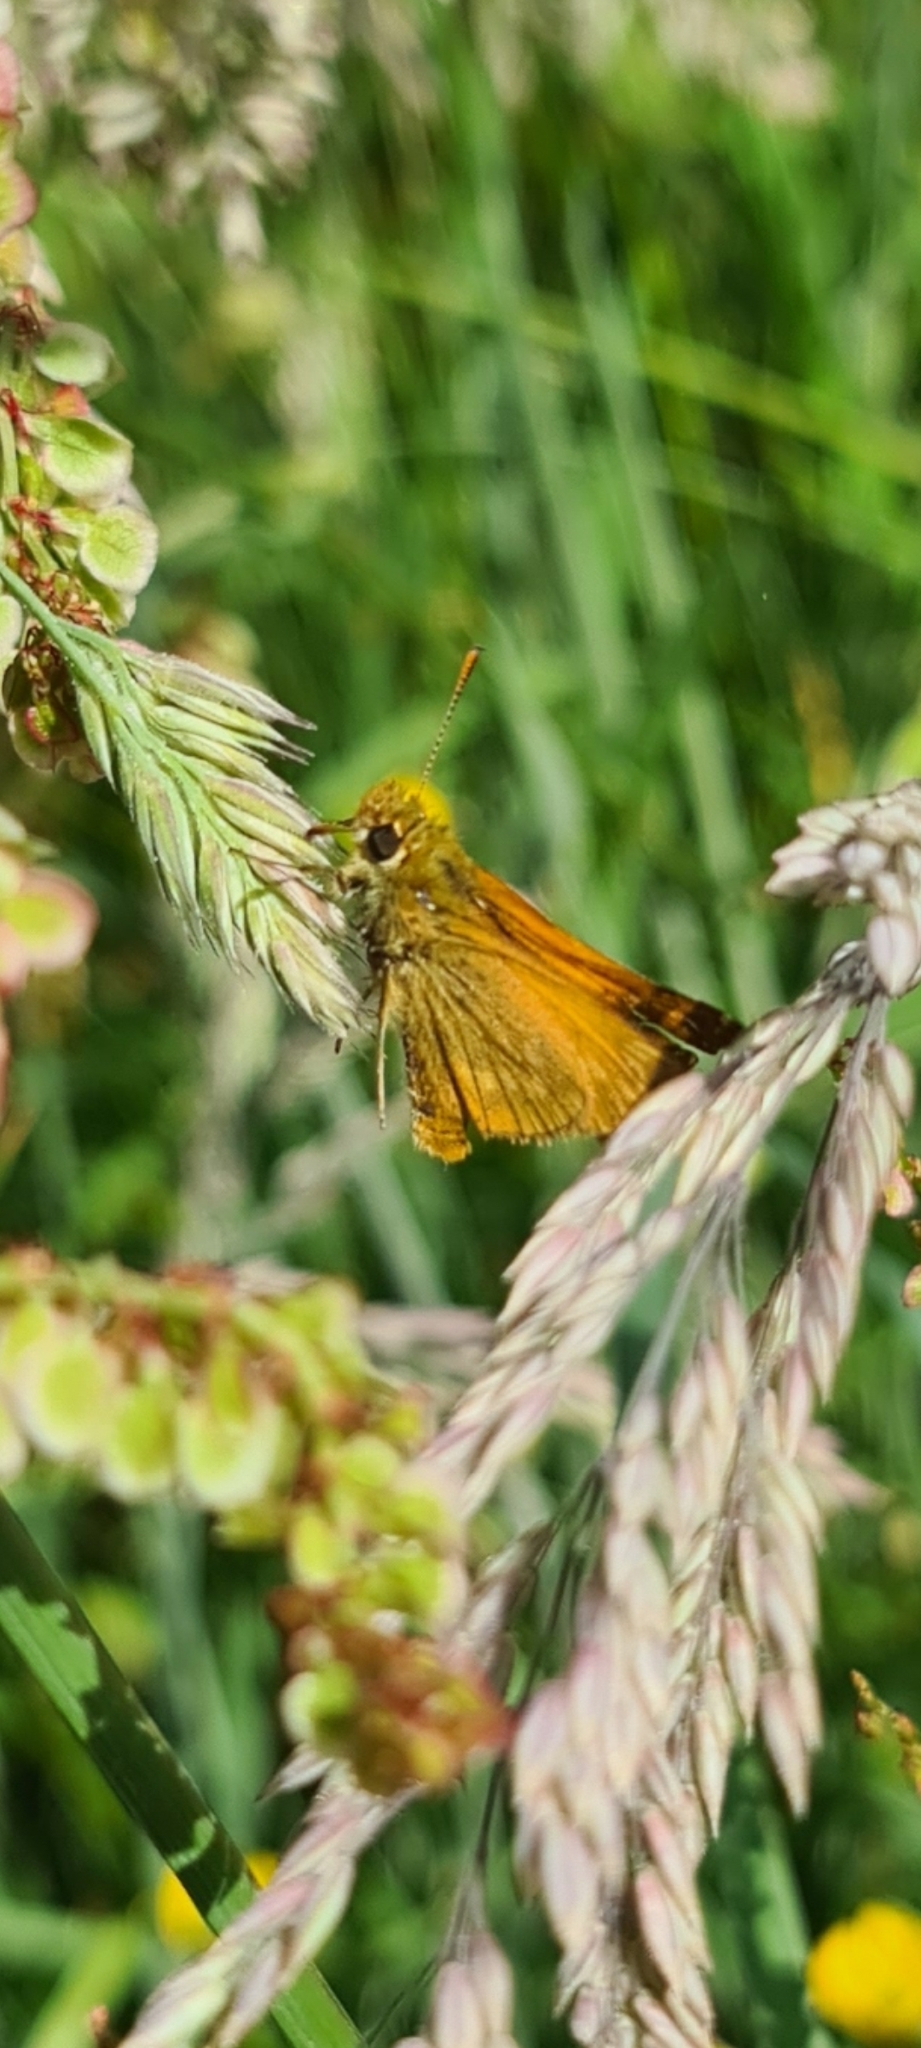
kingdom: Animalia
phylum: Arthropoda
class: Insecta
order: Lepidoptera
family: Hesperiidae
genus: Ochlodes
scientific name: Ochlodes venata
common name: Large skipper
